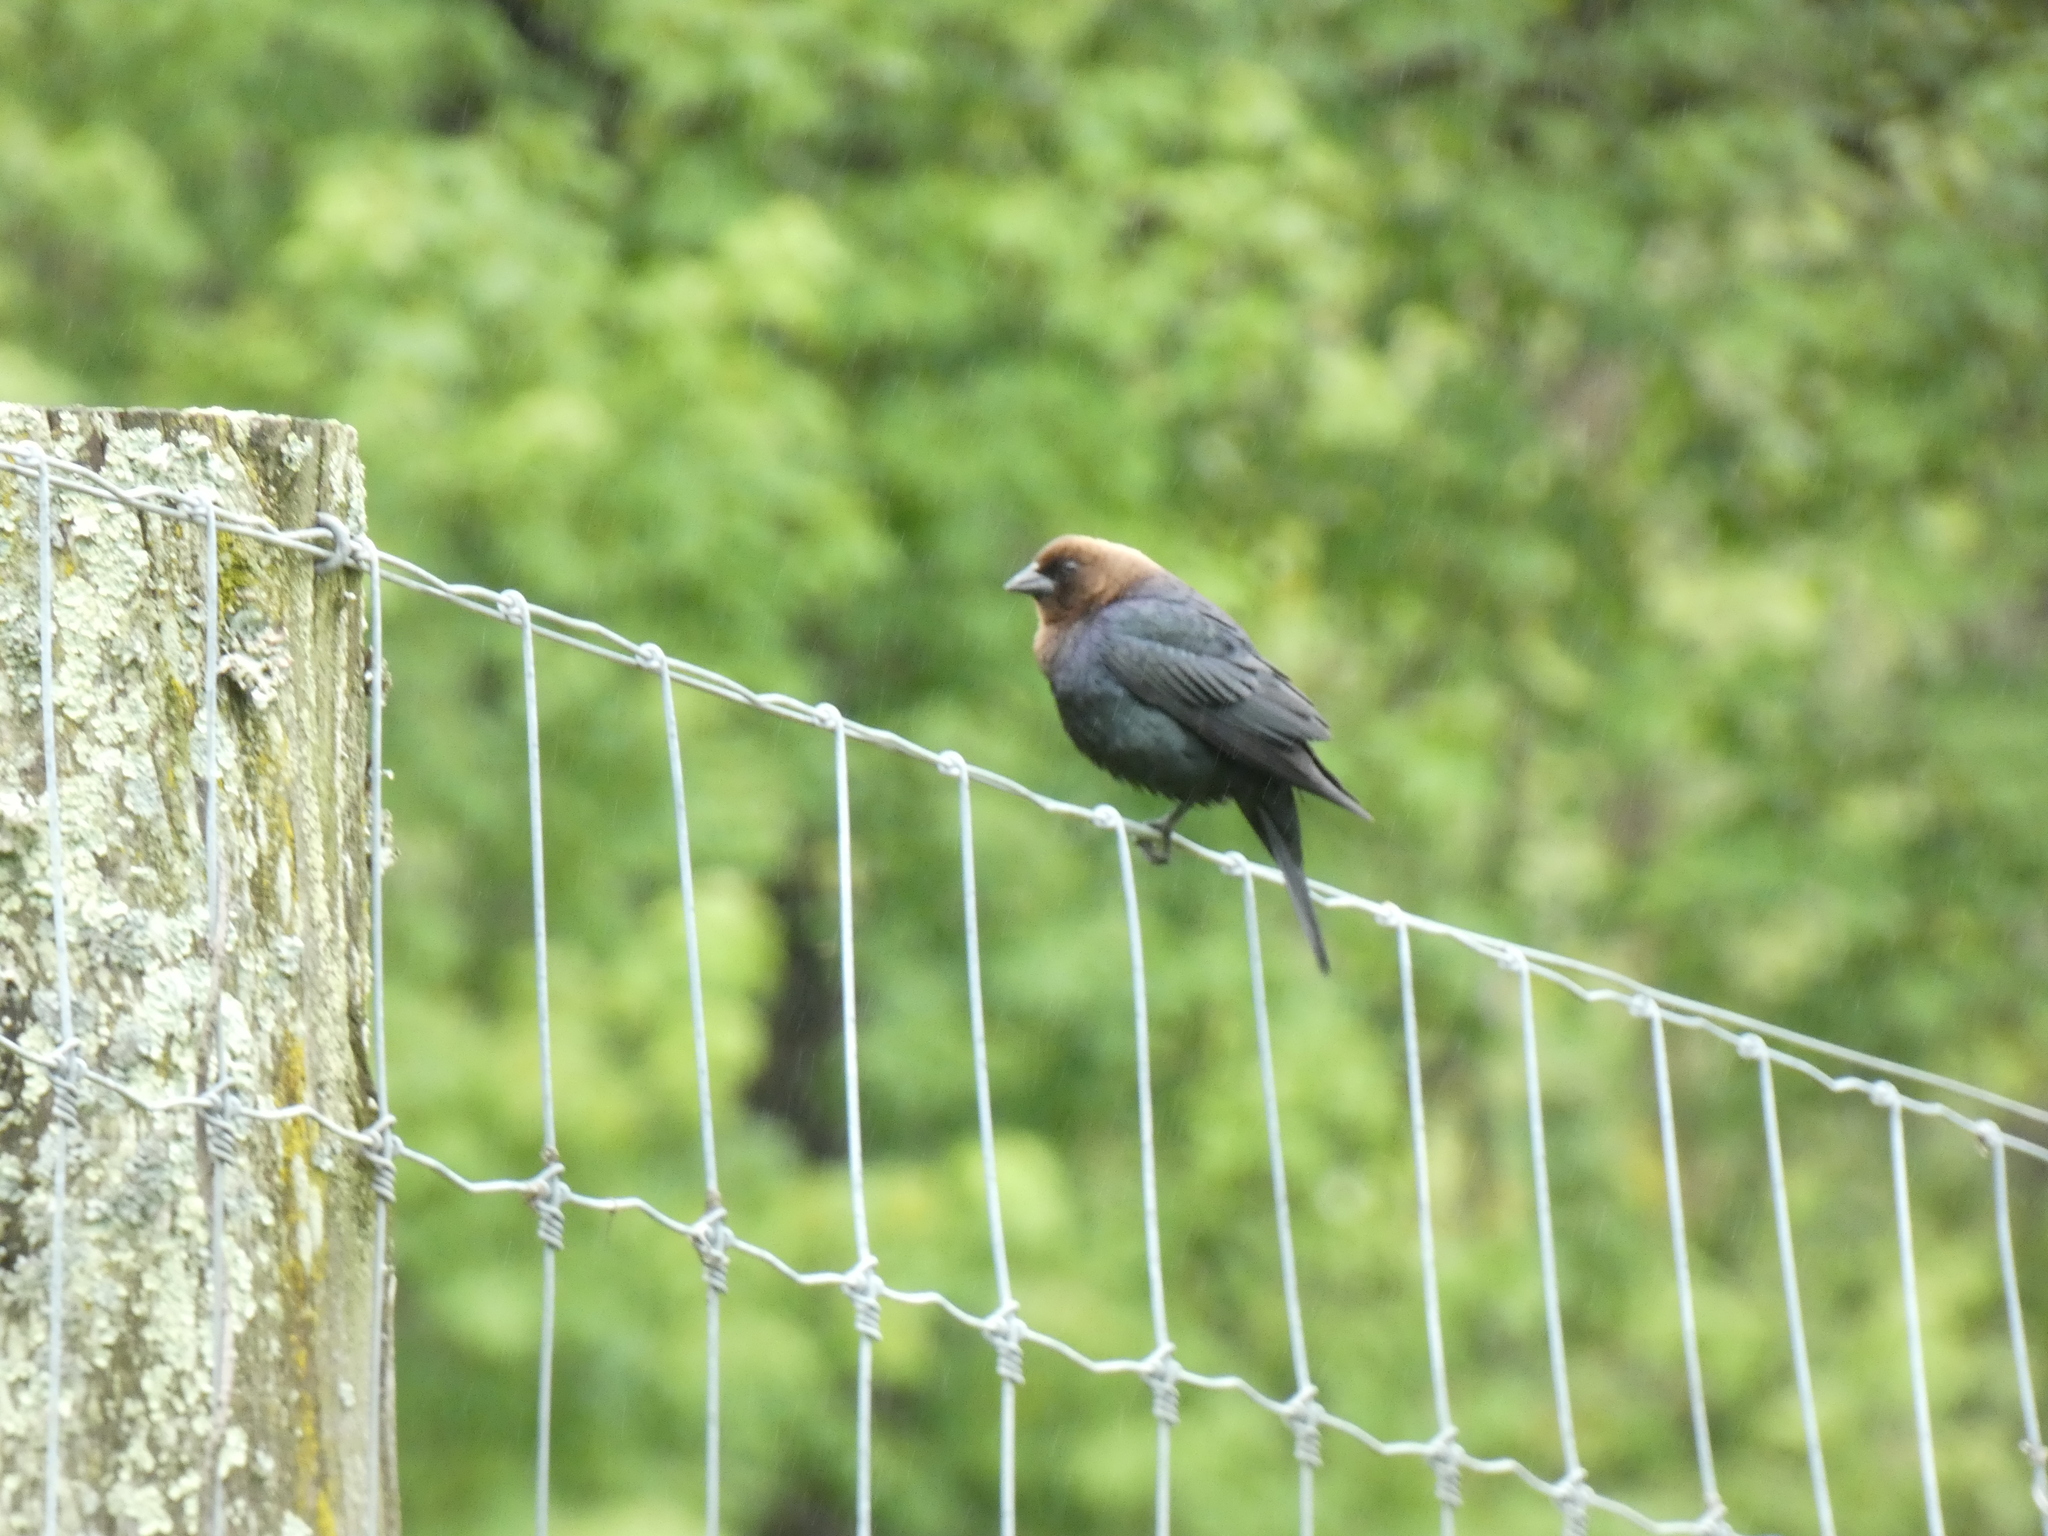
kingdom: Animalia
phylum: Chordata
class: Aves
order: Passeriformes
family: Icteridae
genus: Molothrus
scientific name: Molothrus ater
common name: Brown-headed cowbird
